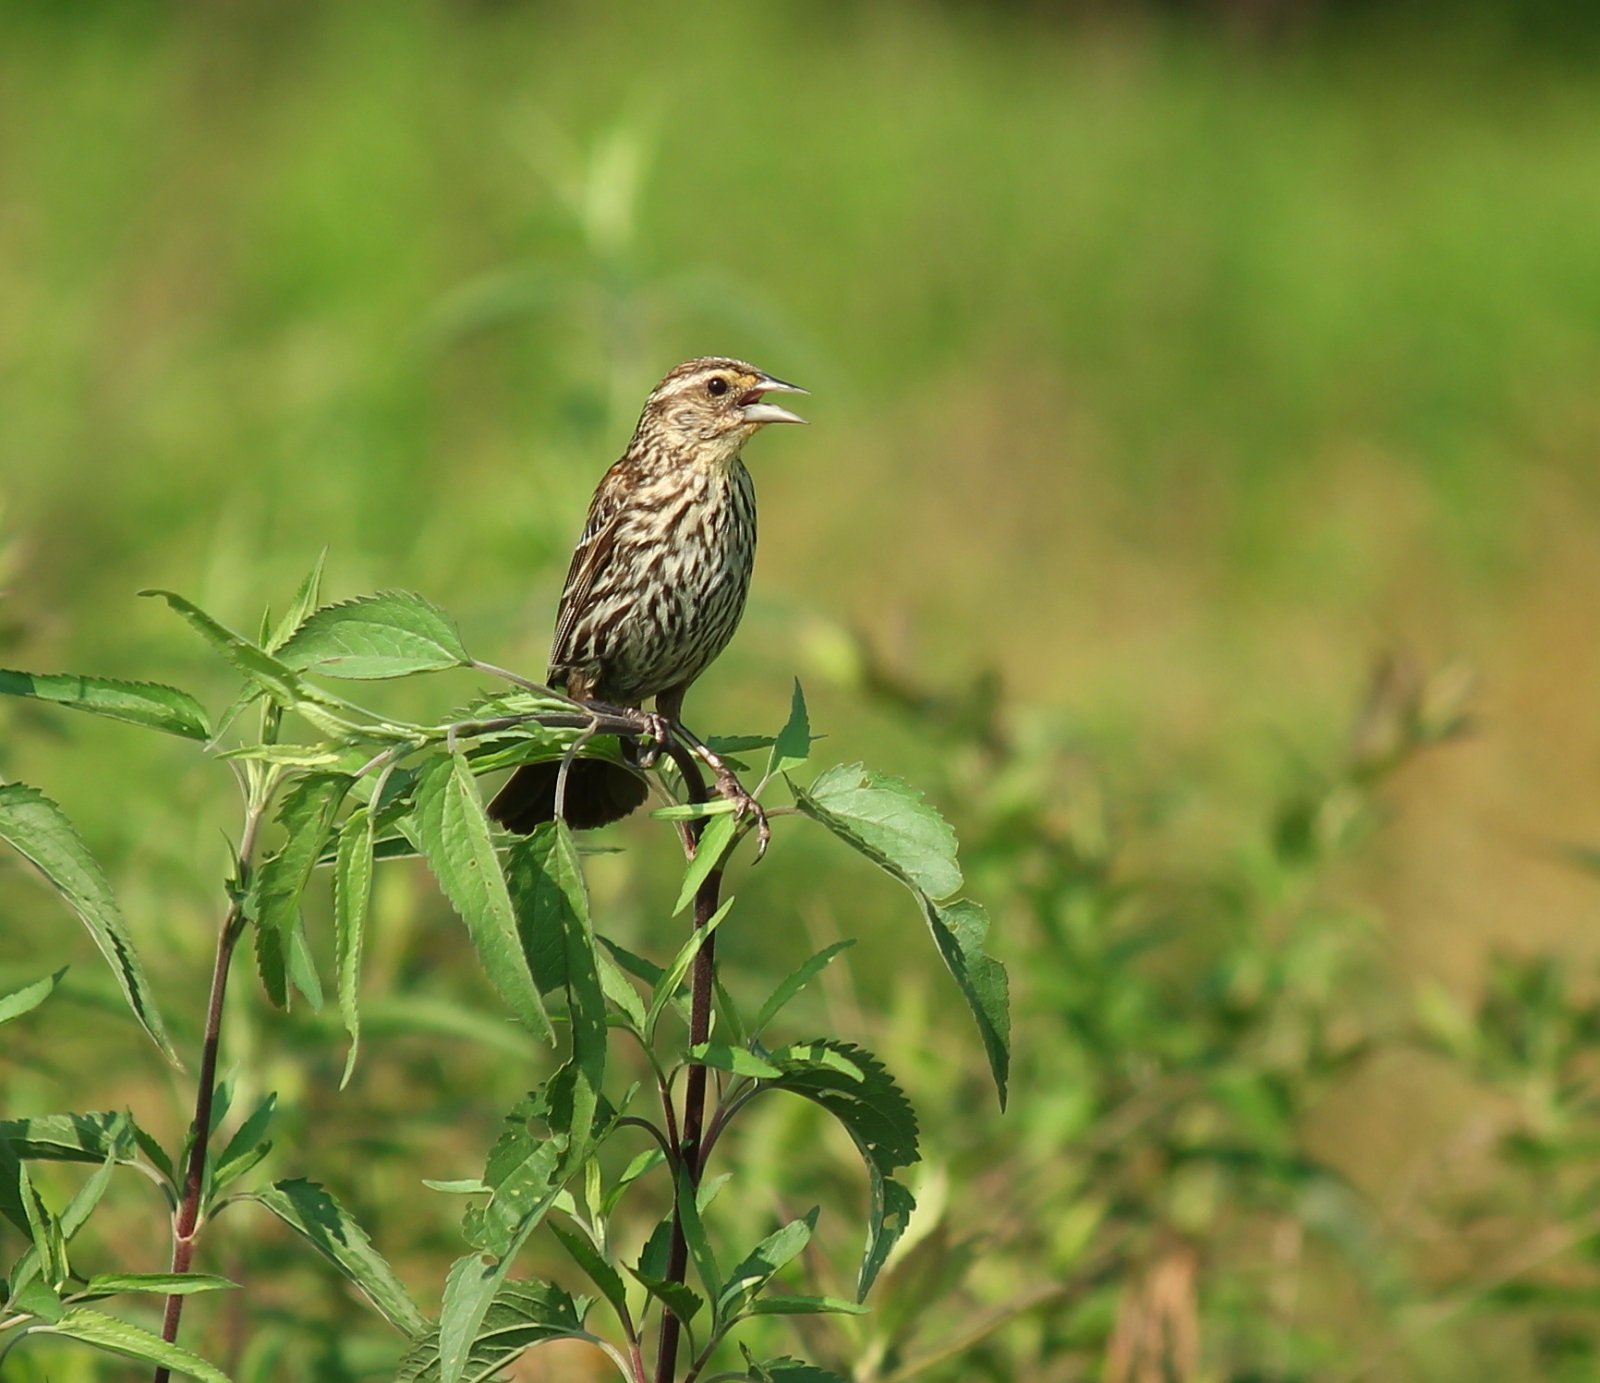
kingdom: Animalia
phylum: Chordata
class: Aves
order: Passeriformes
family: Icteridae
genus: Agelaius
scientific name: Agelaius phoeniceus
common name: Red-winged blackbird
